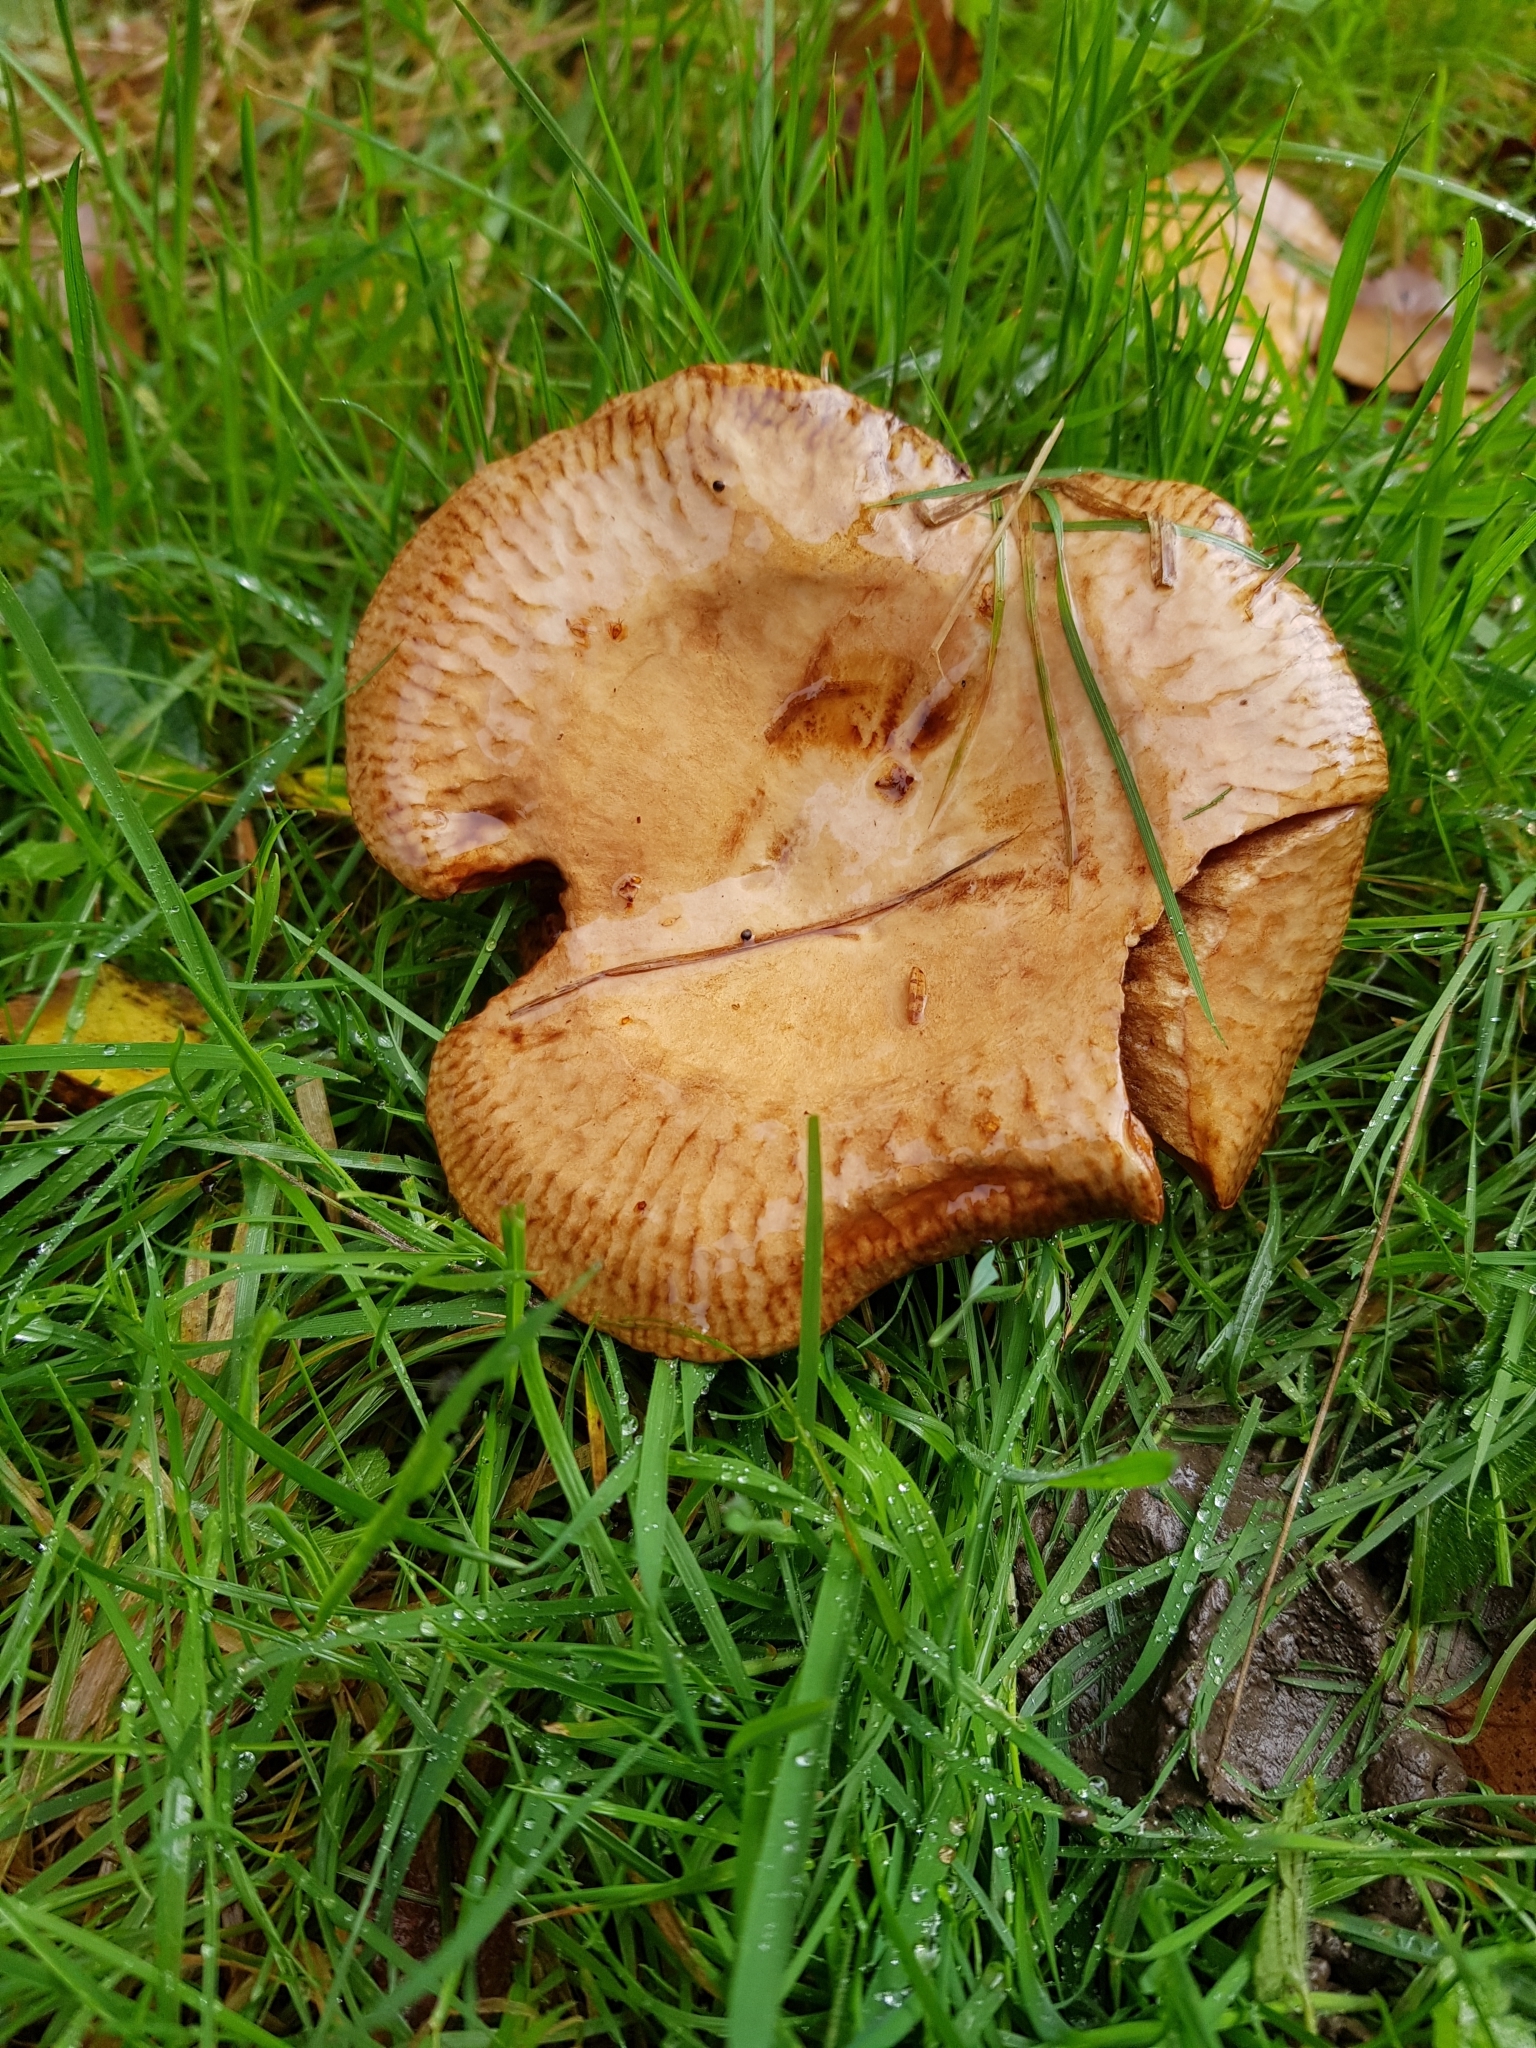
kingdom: Fungi
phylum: Basidiomycota
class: Agaricomycetes
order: Boletales
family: Paxillaceae
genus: Paxillus
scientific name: Paxillus involutus
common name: Brown roll rim
